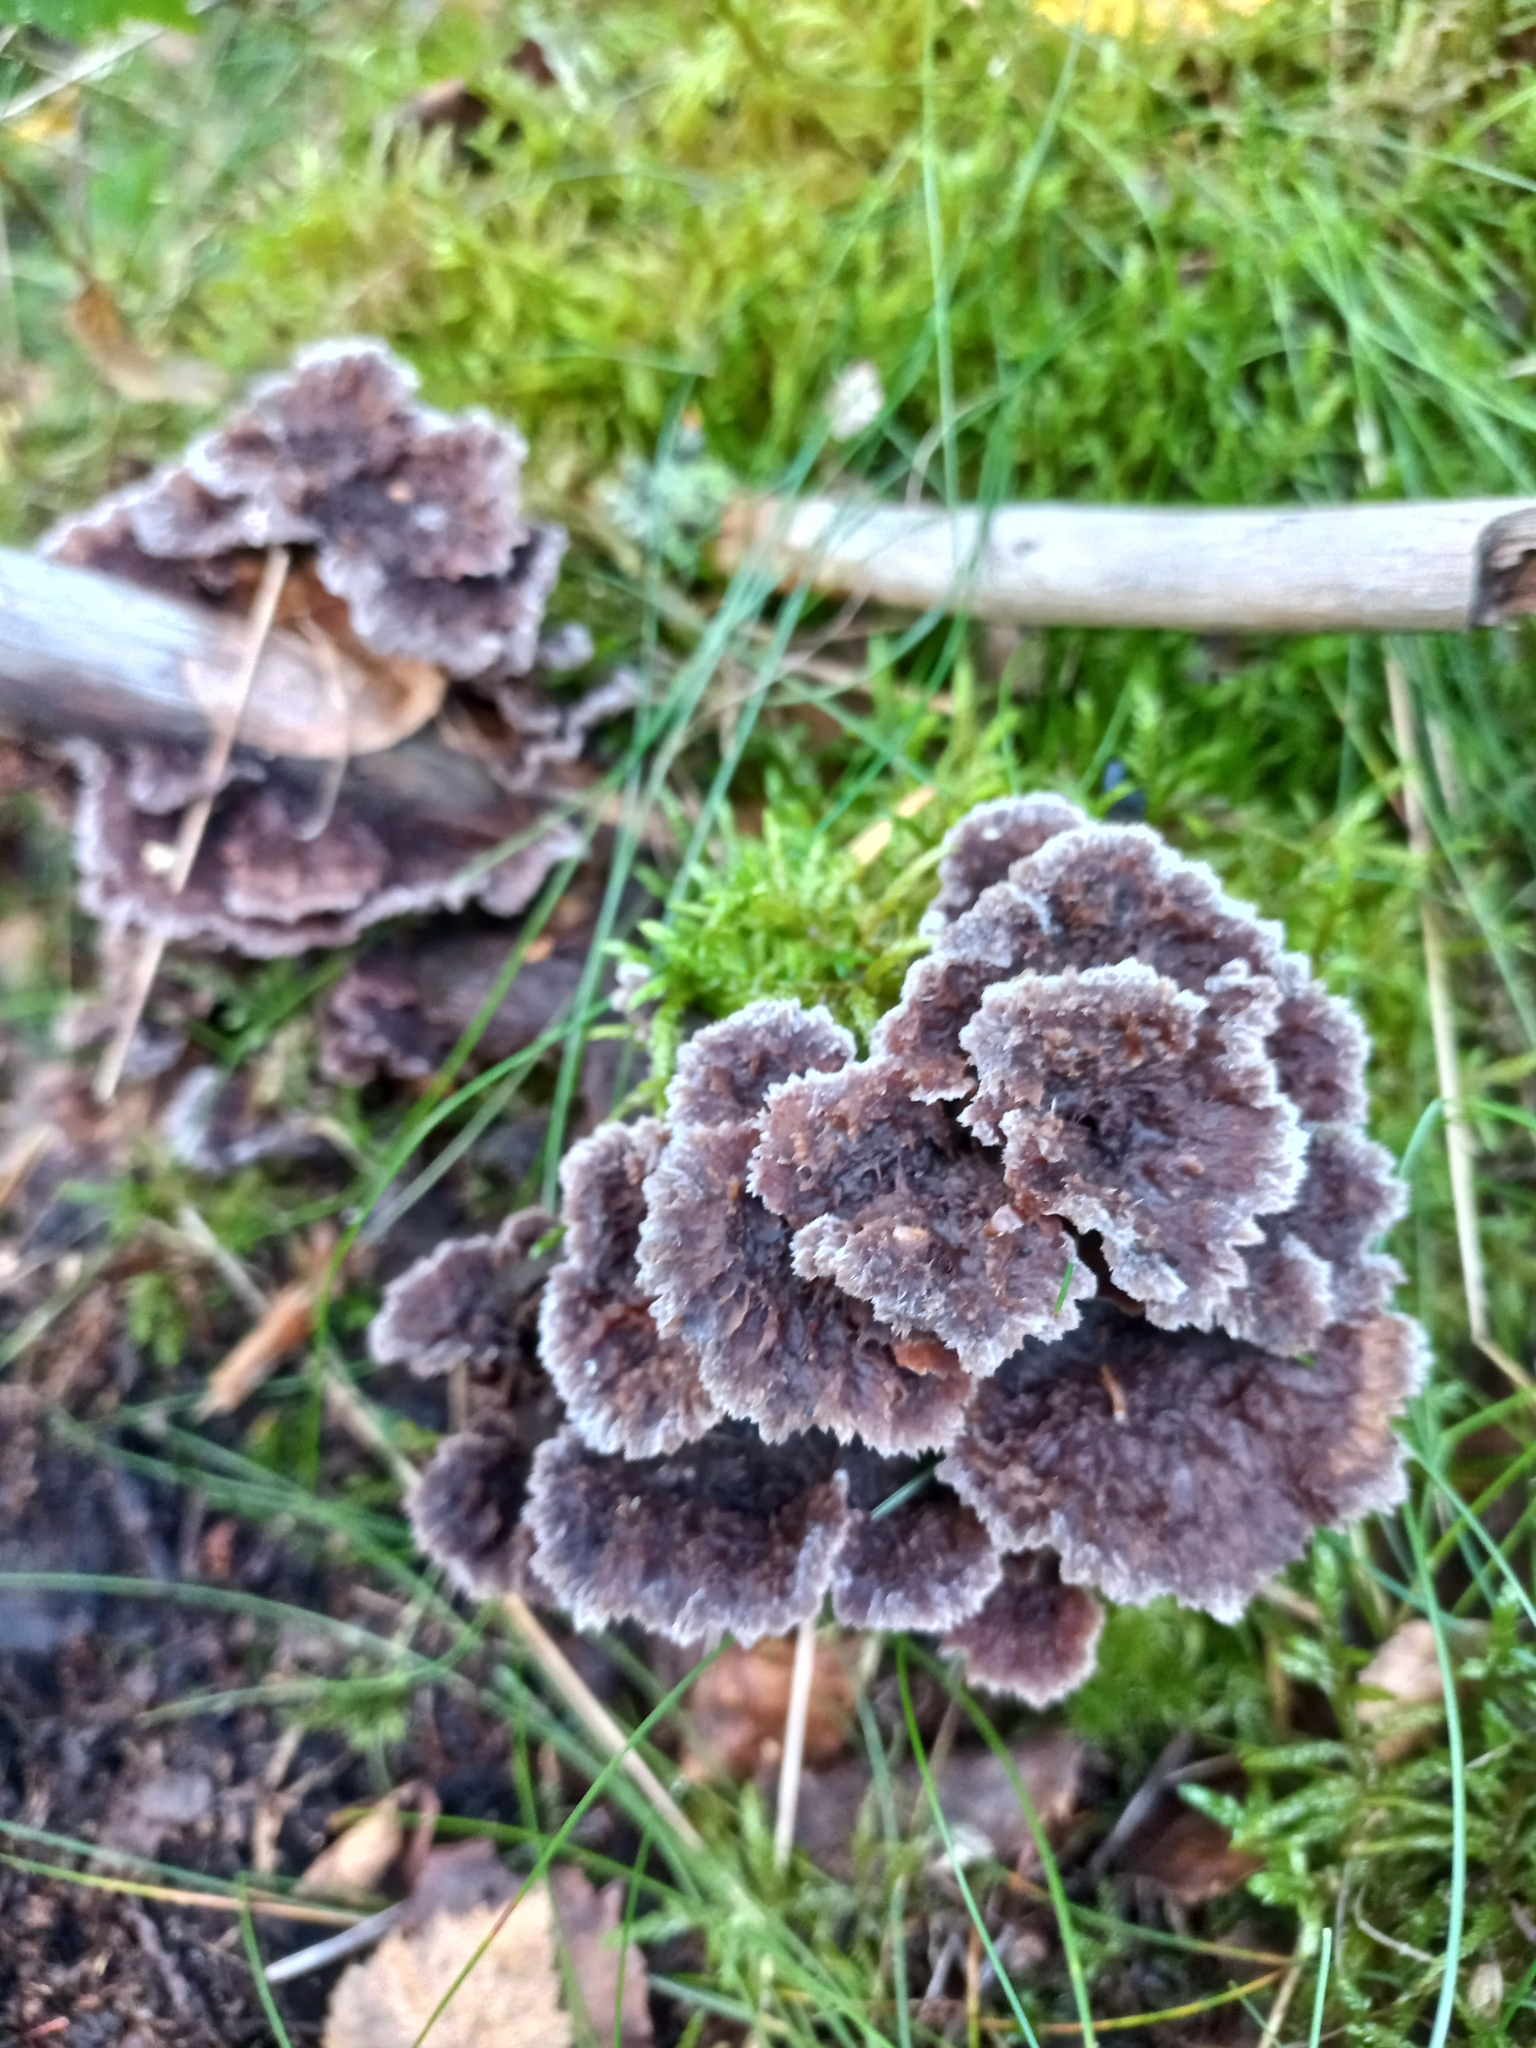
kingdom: Fungi
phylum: Basidiomycota
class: Agaricomycetes
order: Thelephorales
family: Thelephoraceae
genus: Thelephora
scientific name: Thelephora terrestris
